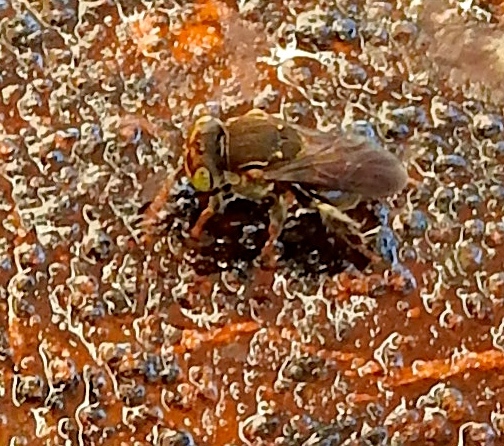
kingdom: Animalia
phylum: Arthropoda
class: Insecta
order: Hymenoptera
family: Apidae
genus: Nannotrigona
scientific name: Nannotrigona perilampoides
